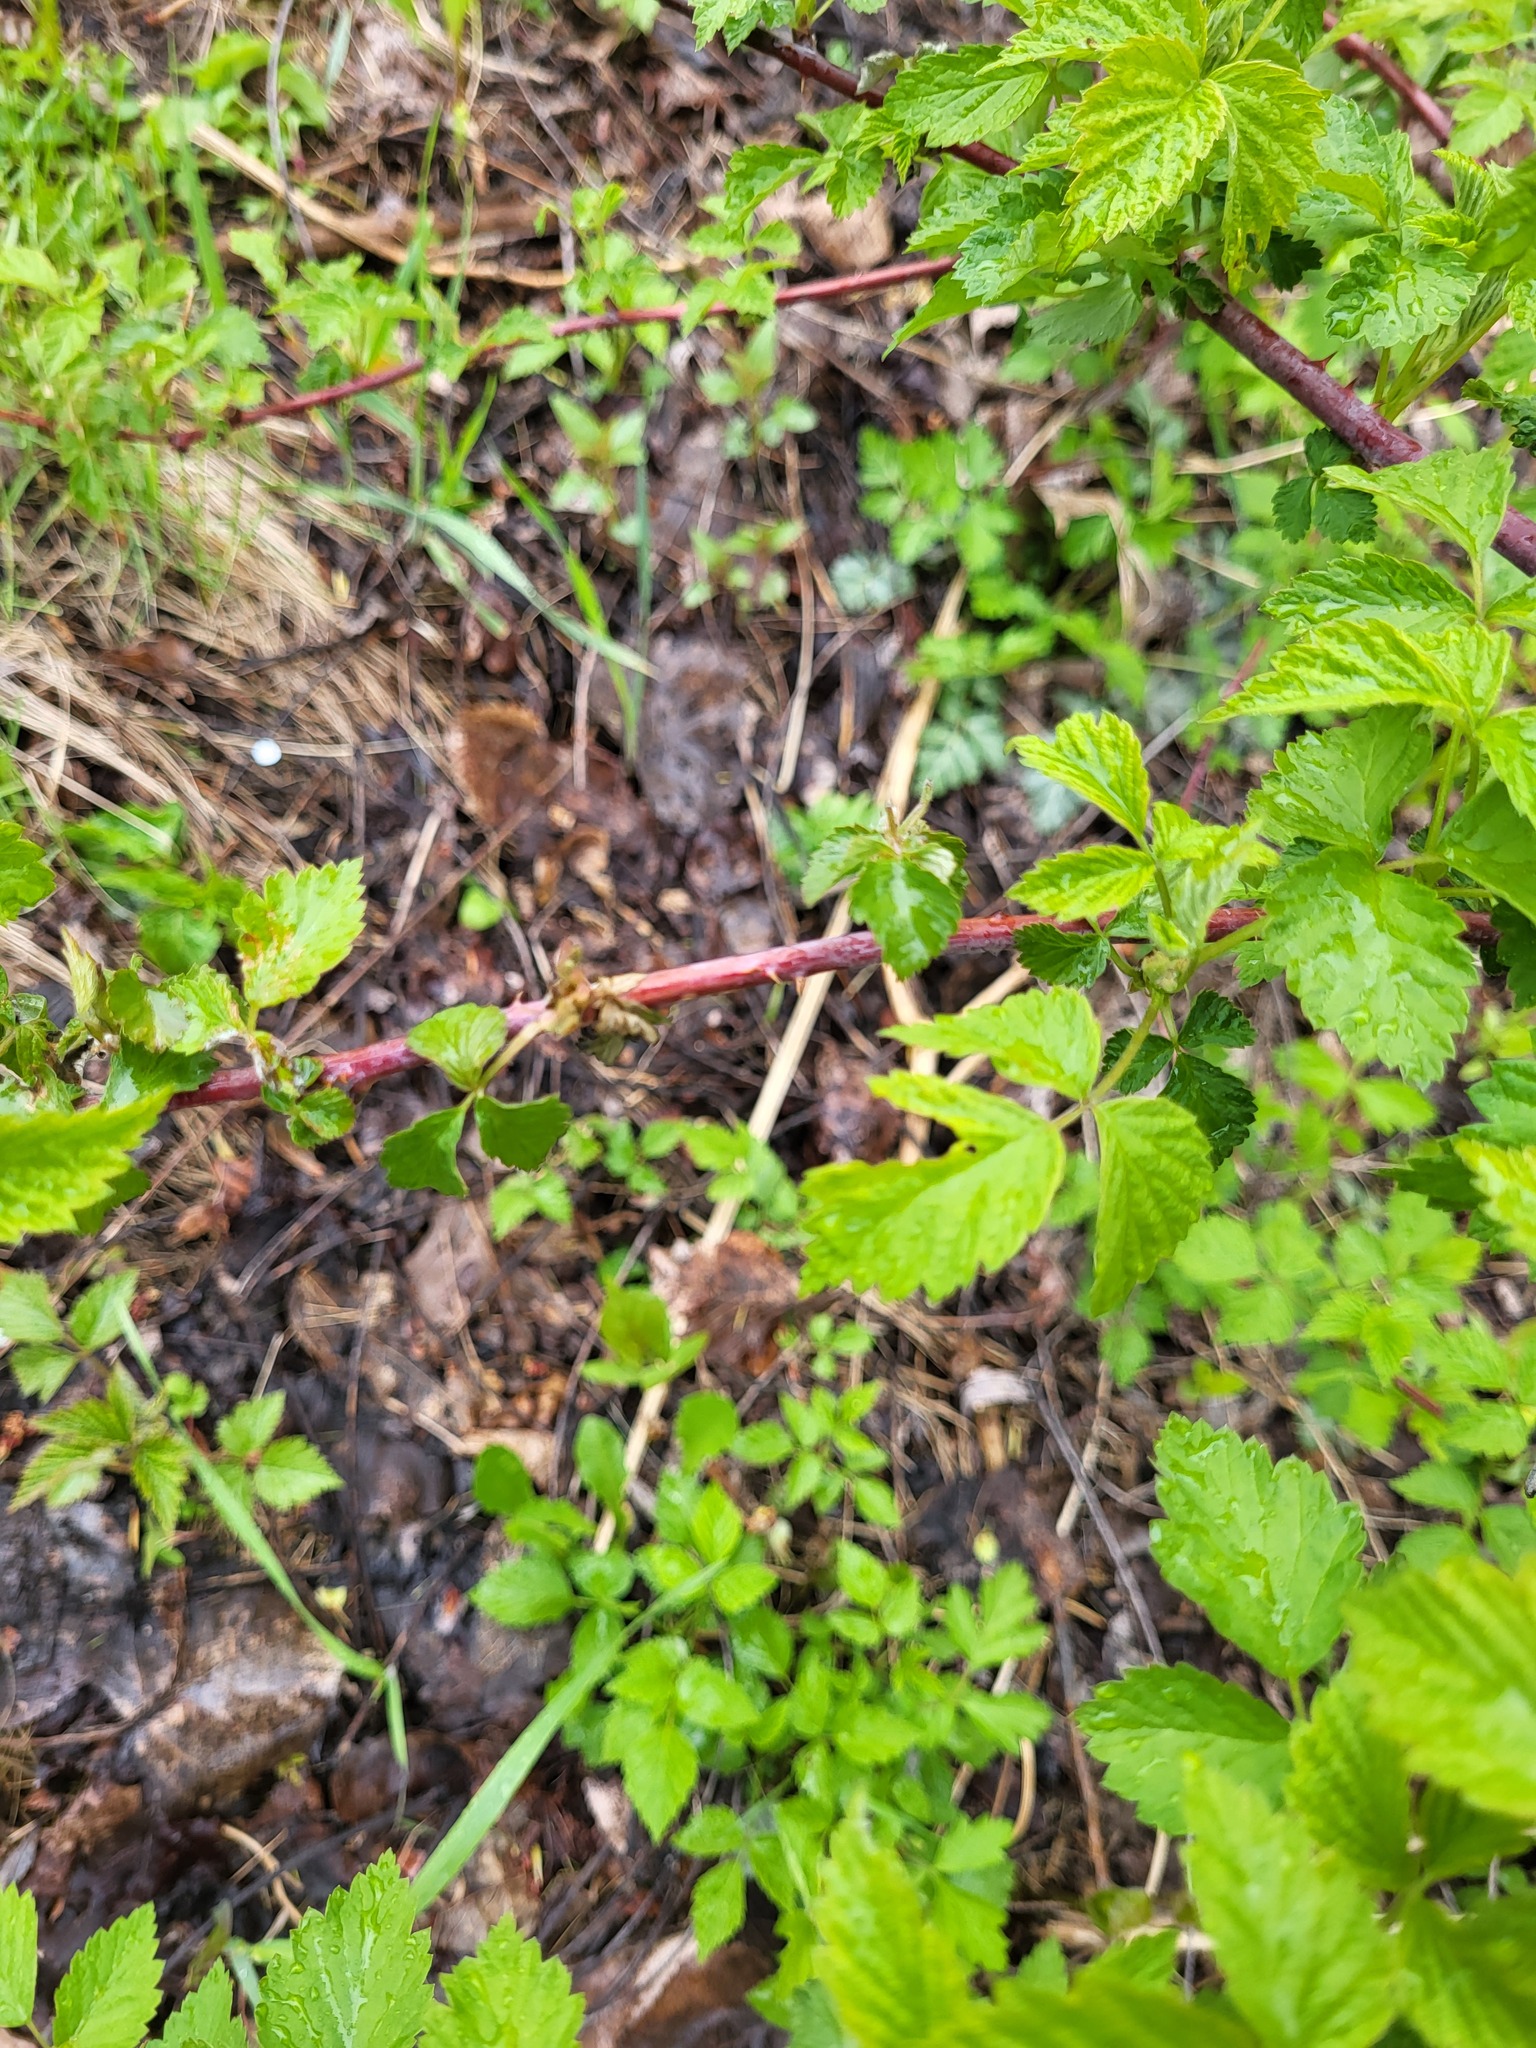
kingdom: Plantae
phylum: Tracheophyta
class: Magnoliopsida
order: Rosales
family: Rosaceae
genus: Rubus
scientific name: Rubus occidentalis
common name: Black raspberry
